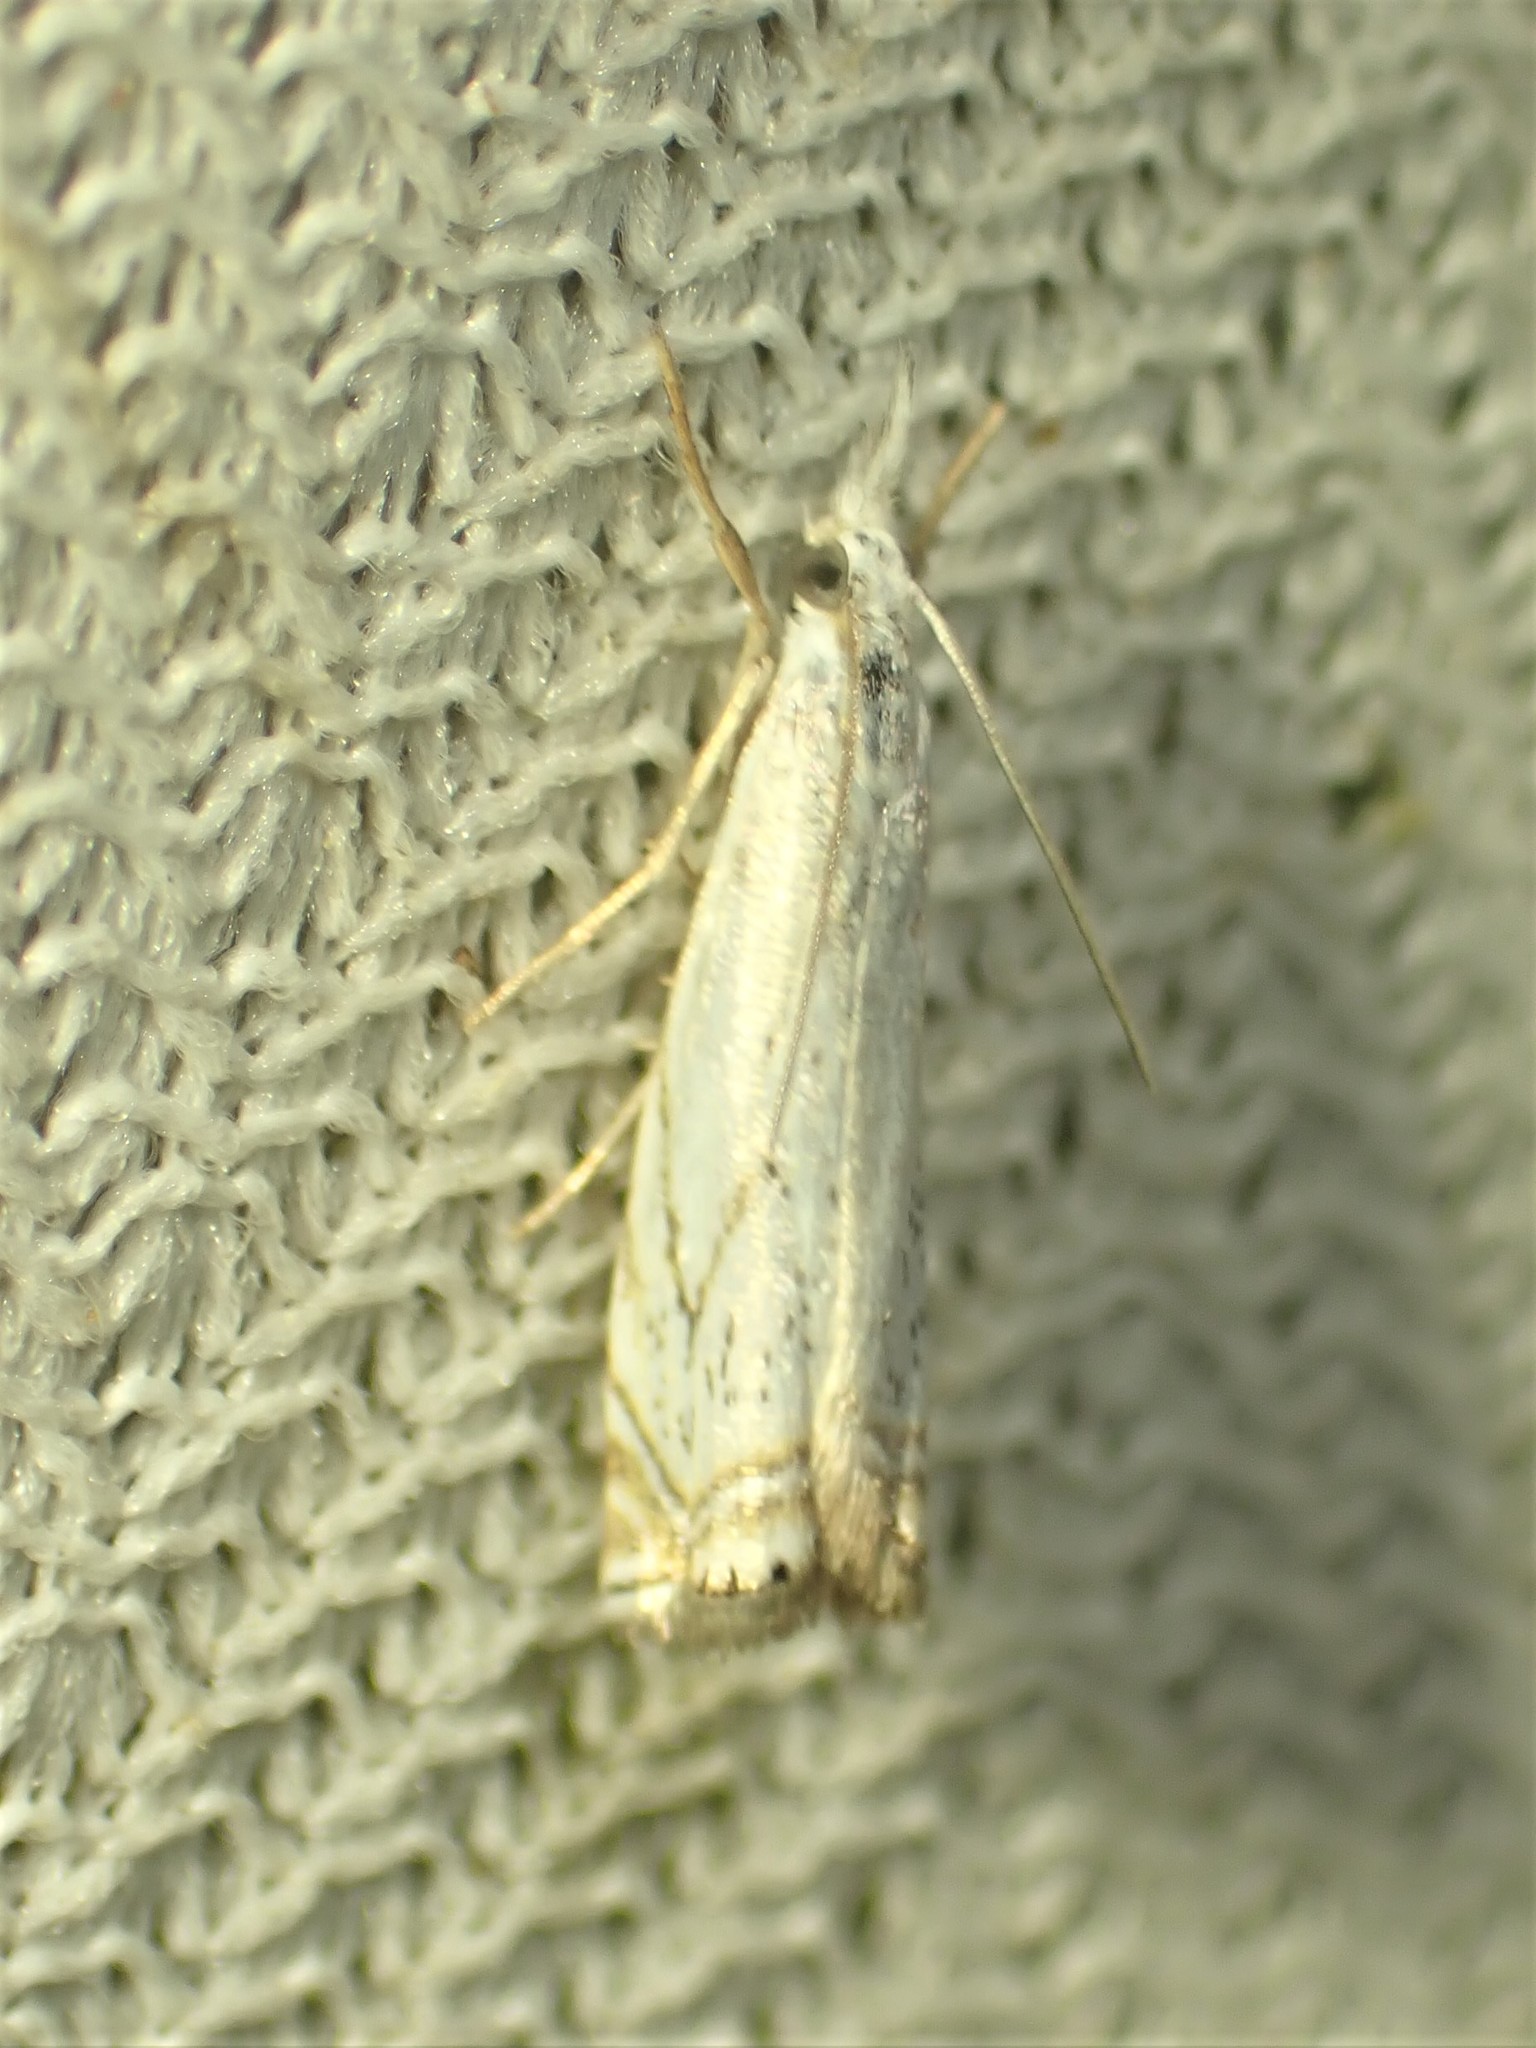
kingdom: Animalia
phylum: Arthropoda
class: Insecta
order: Lepidoptera
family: Crambidae
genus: Crambus
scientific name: Crambus albellus
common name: Small white grass-veneer
